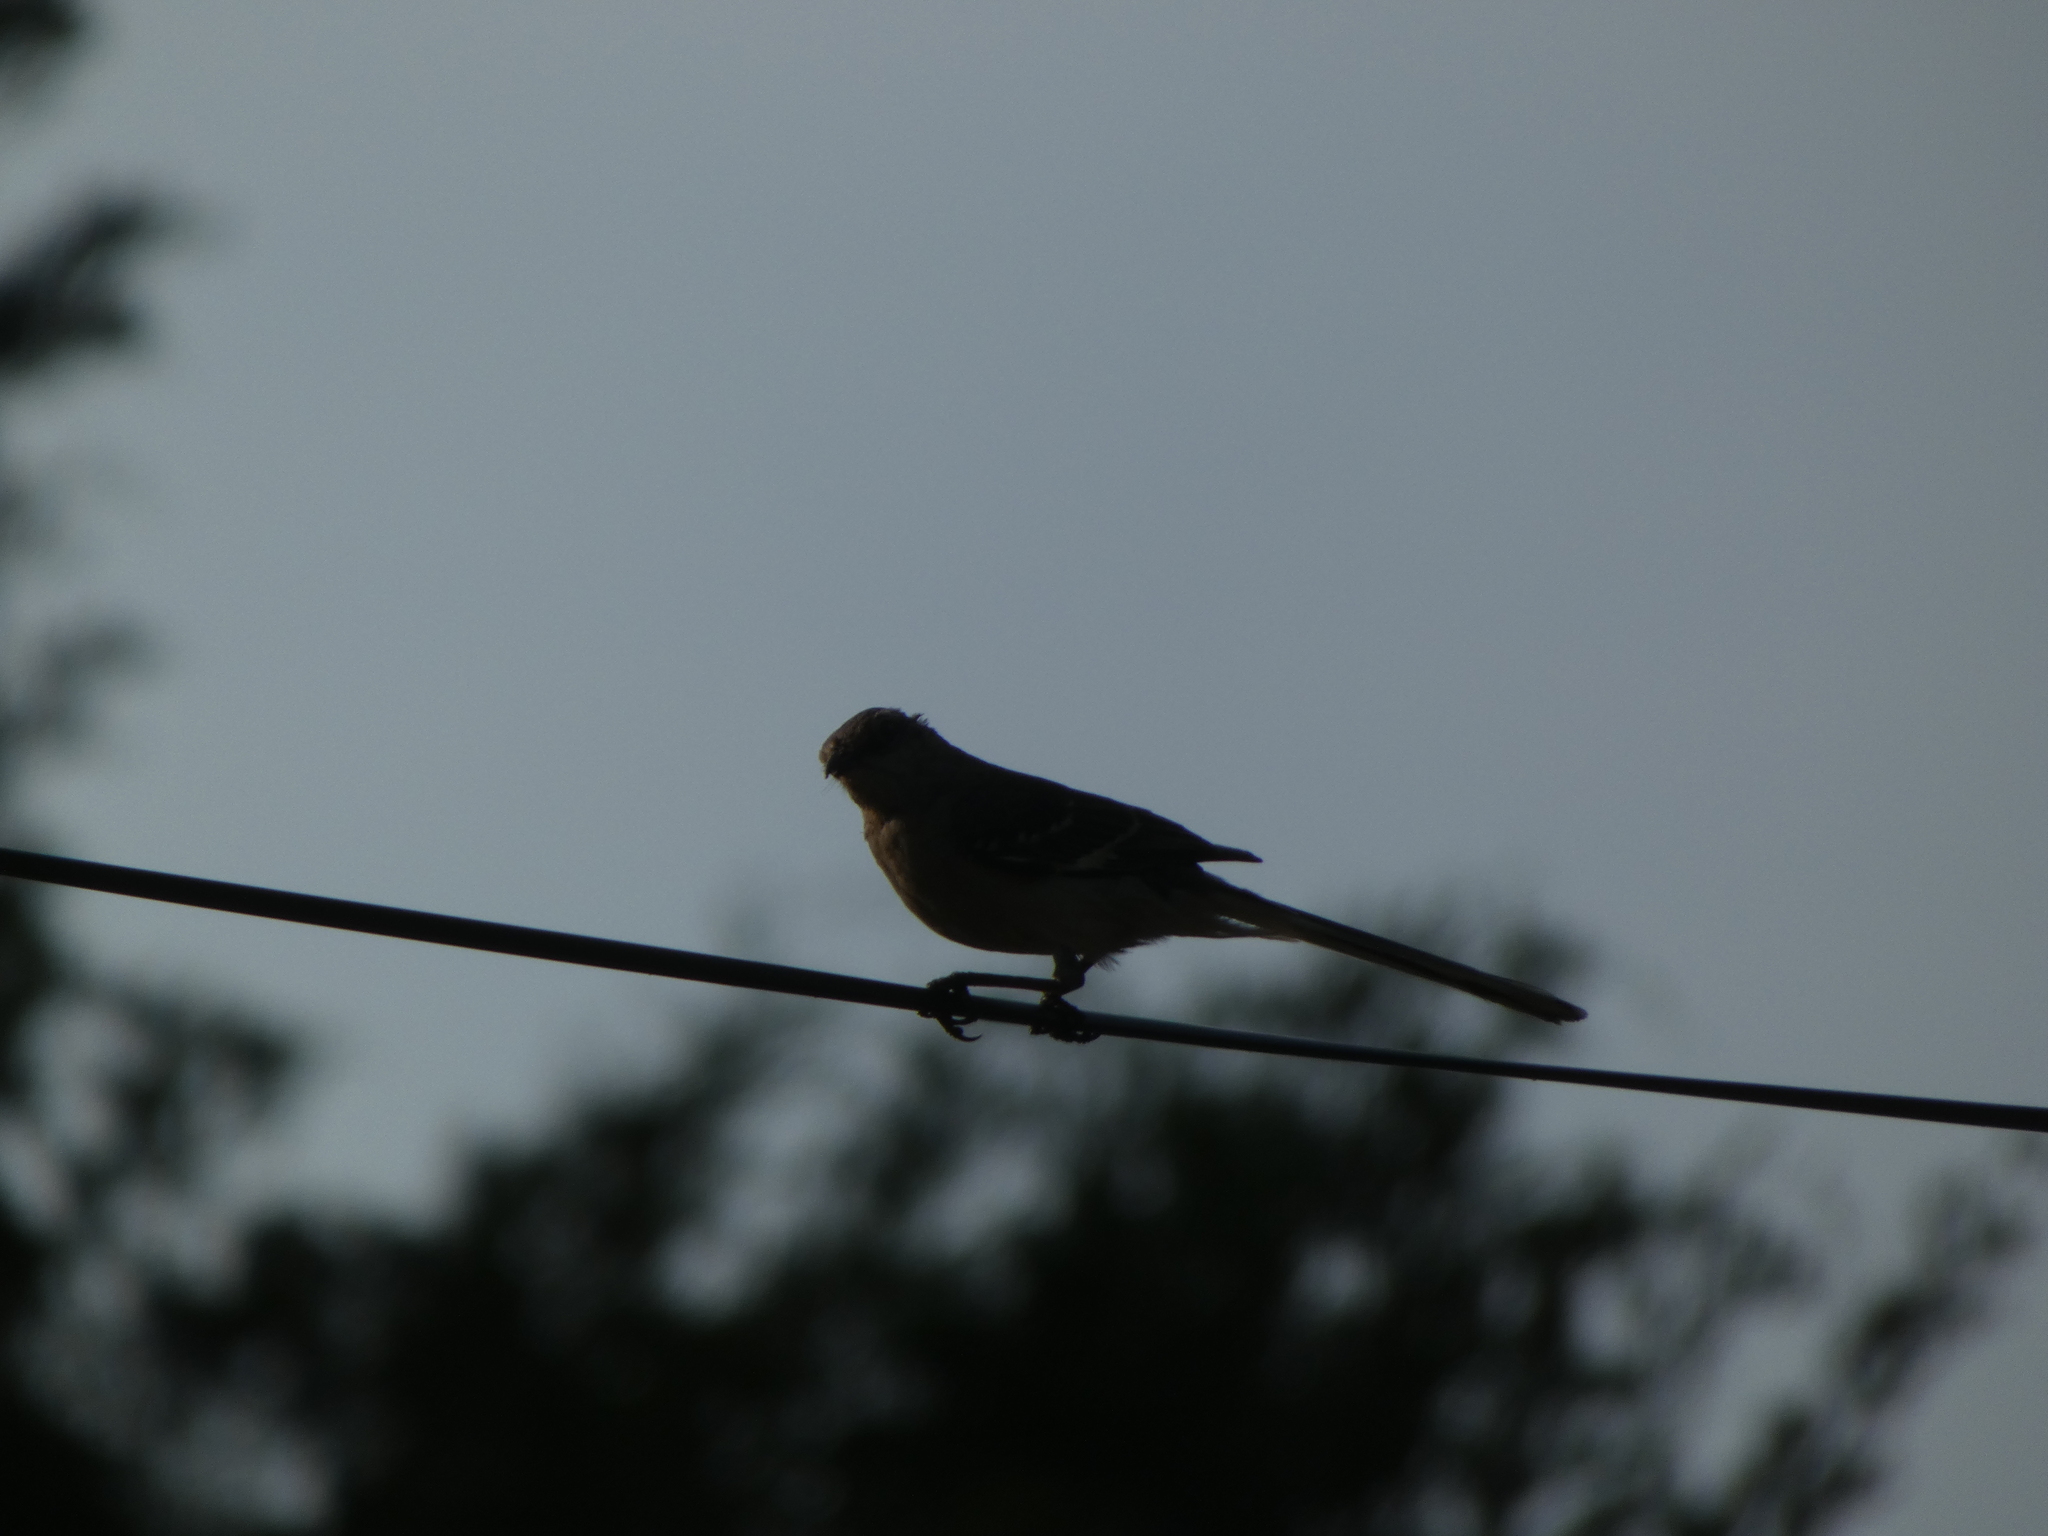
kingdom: Animalia
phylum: Chordata
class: Aves
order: Passeriformes
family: Mimidae
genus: Mimus
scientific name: Mimus polyglottos
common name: Northern mockingbird
